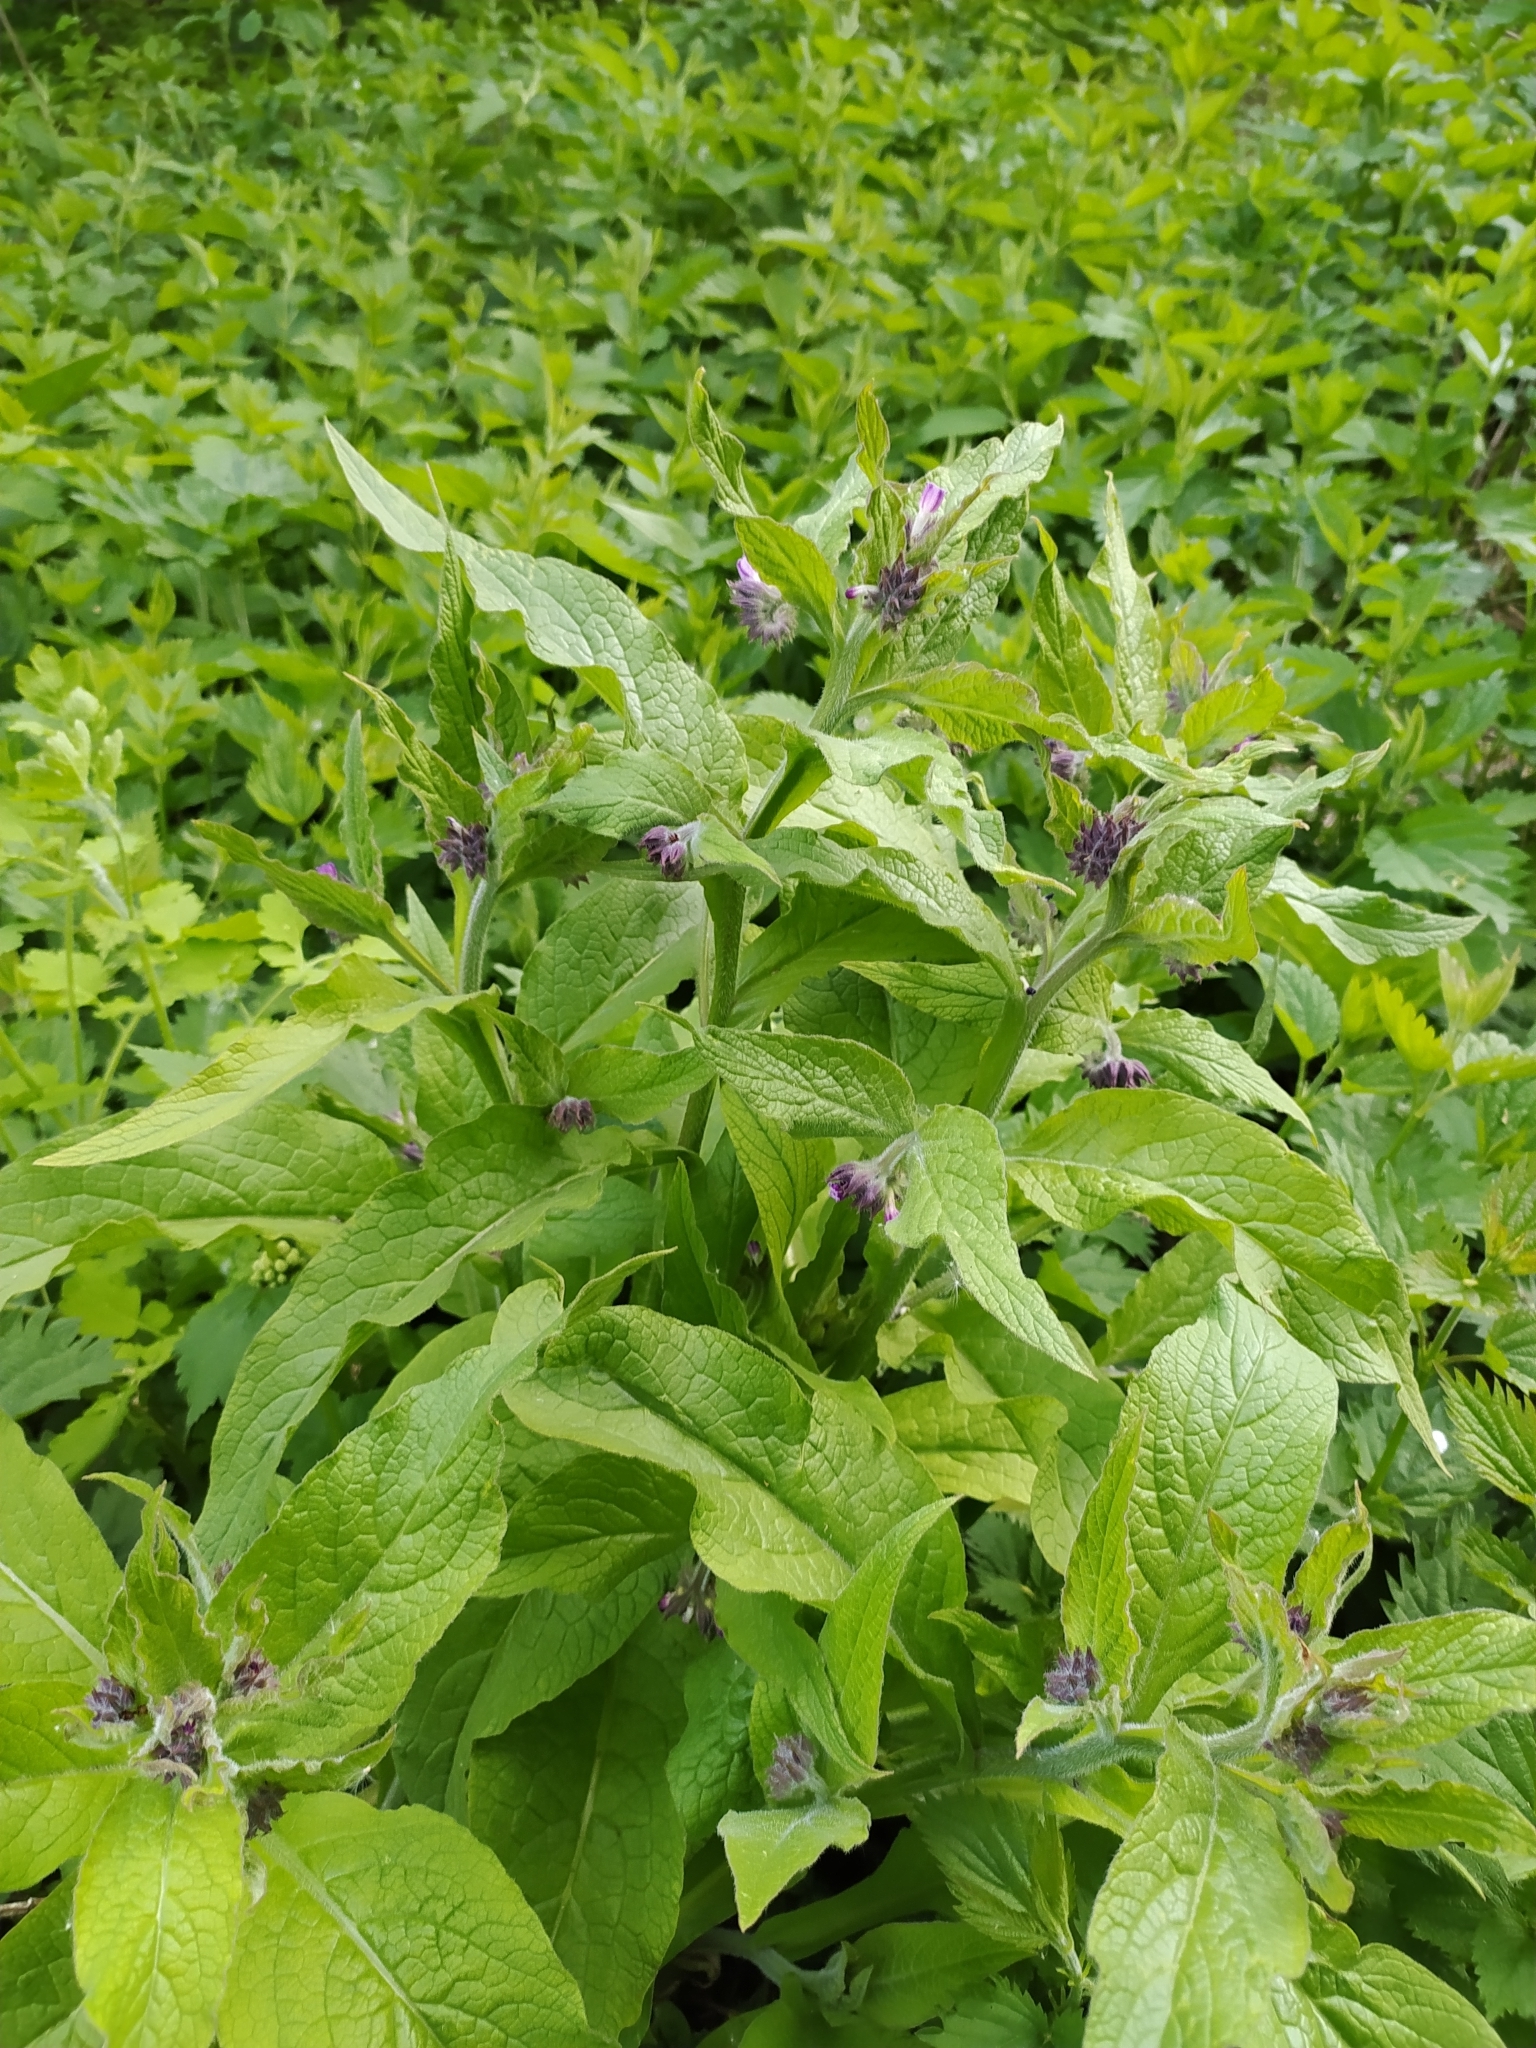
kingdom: Plantae
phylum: Tracheophyta
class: Magnoliopsida
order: Boraginales
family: Boraginaceae
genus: Symphytum
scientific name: Symphytum officinale
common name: Common comfrey
